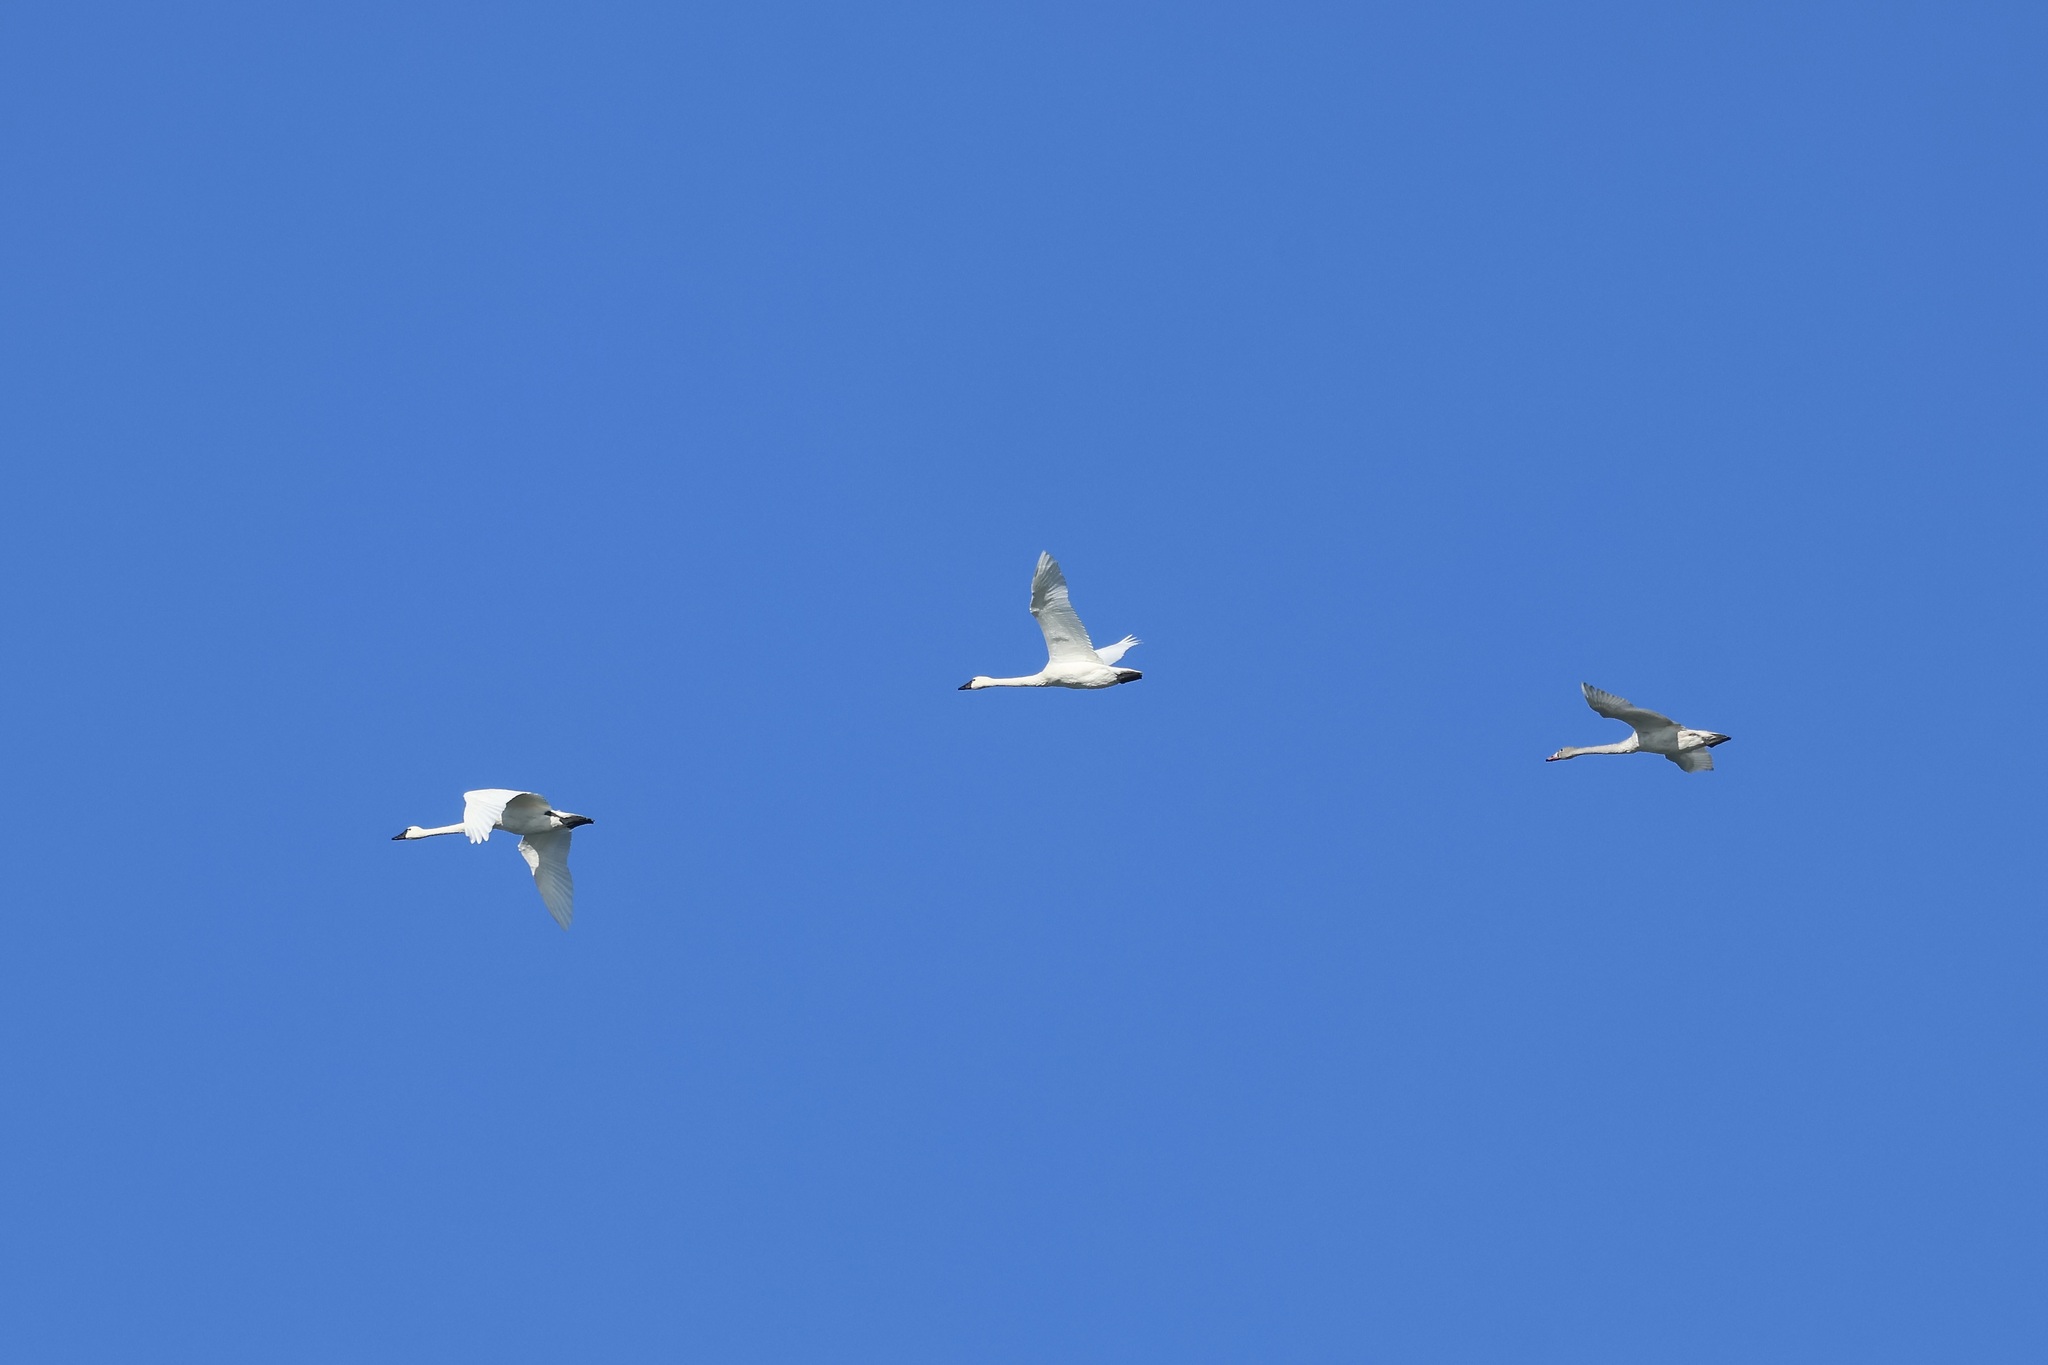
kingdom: Animalia
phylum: Chordata
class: Aves
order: Anseriformes
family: Anatidae
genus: Cygnus
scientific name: Cygnus columbianus
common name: Tundra swan
